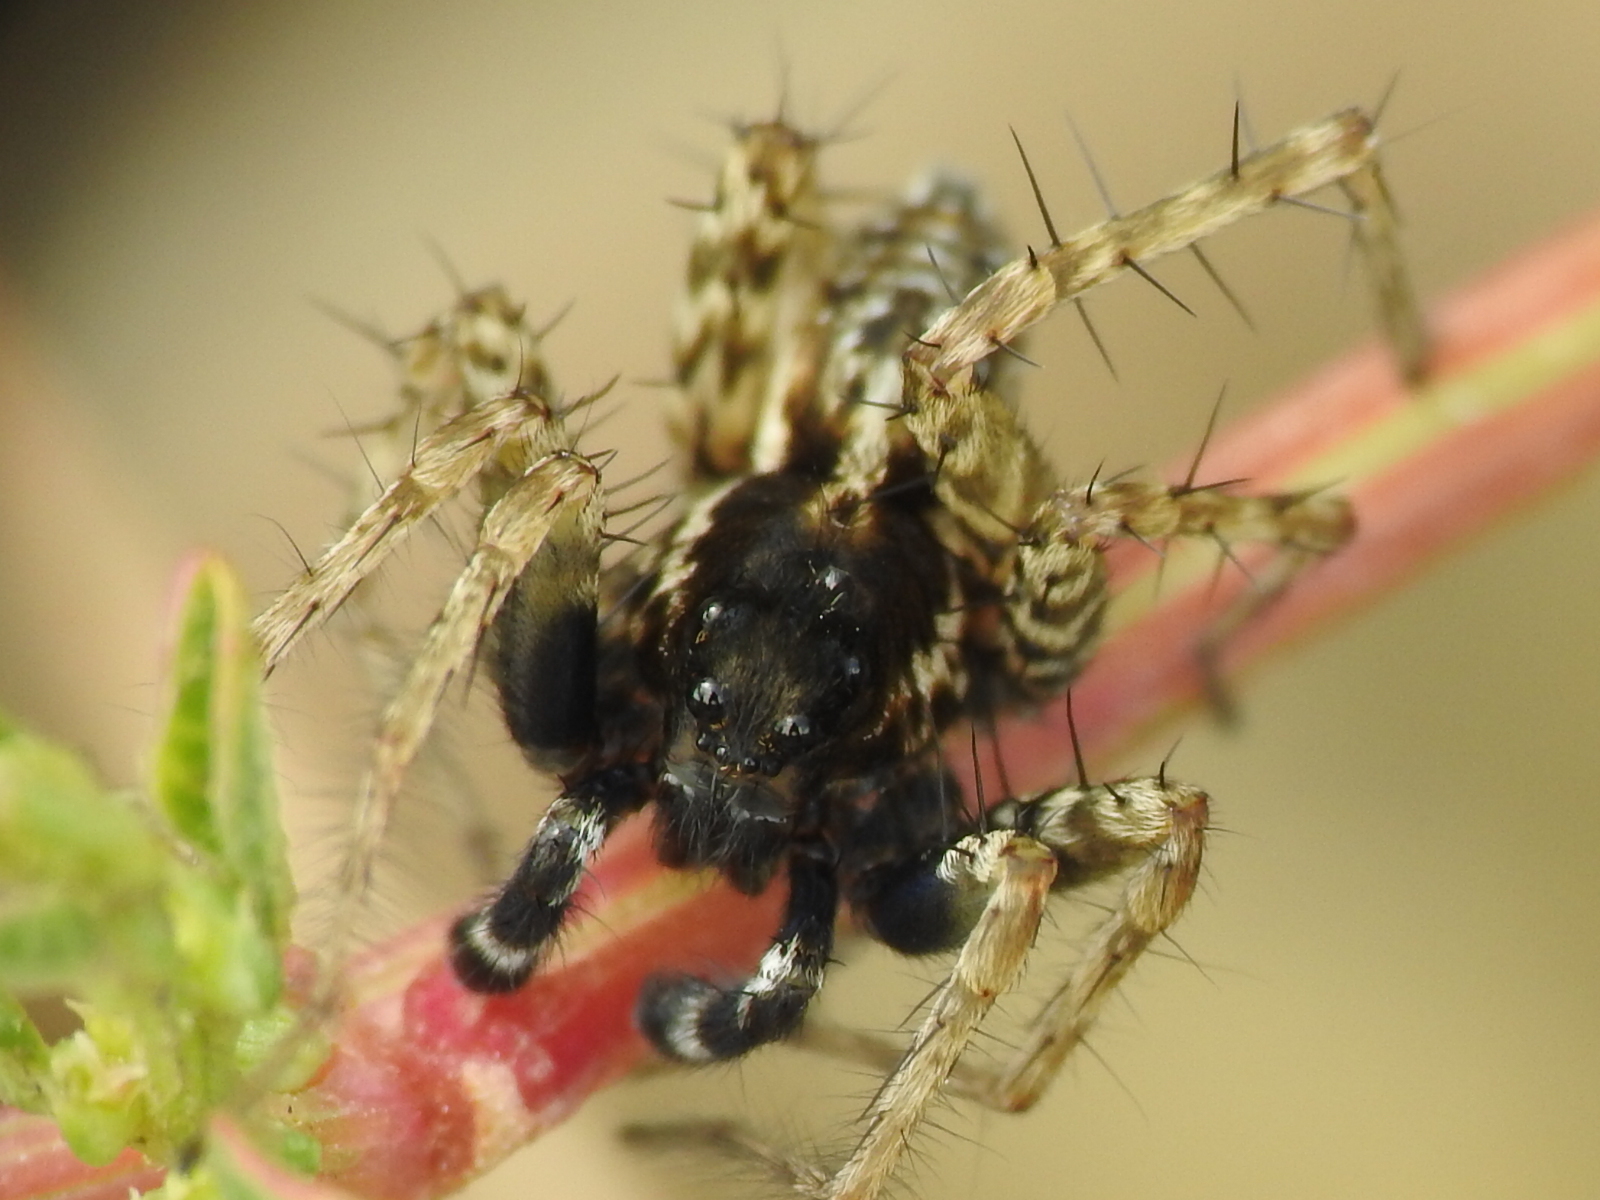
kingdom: Animalia
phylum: Arthropoda
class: Arachnida
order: Araneae
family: Lycosidae
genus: Pardosa
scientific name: Pardosa atlantica
